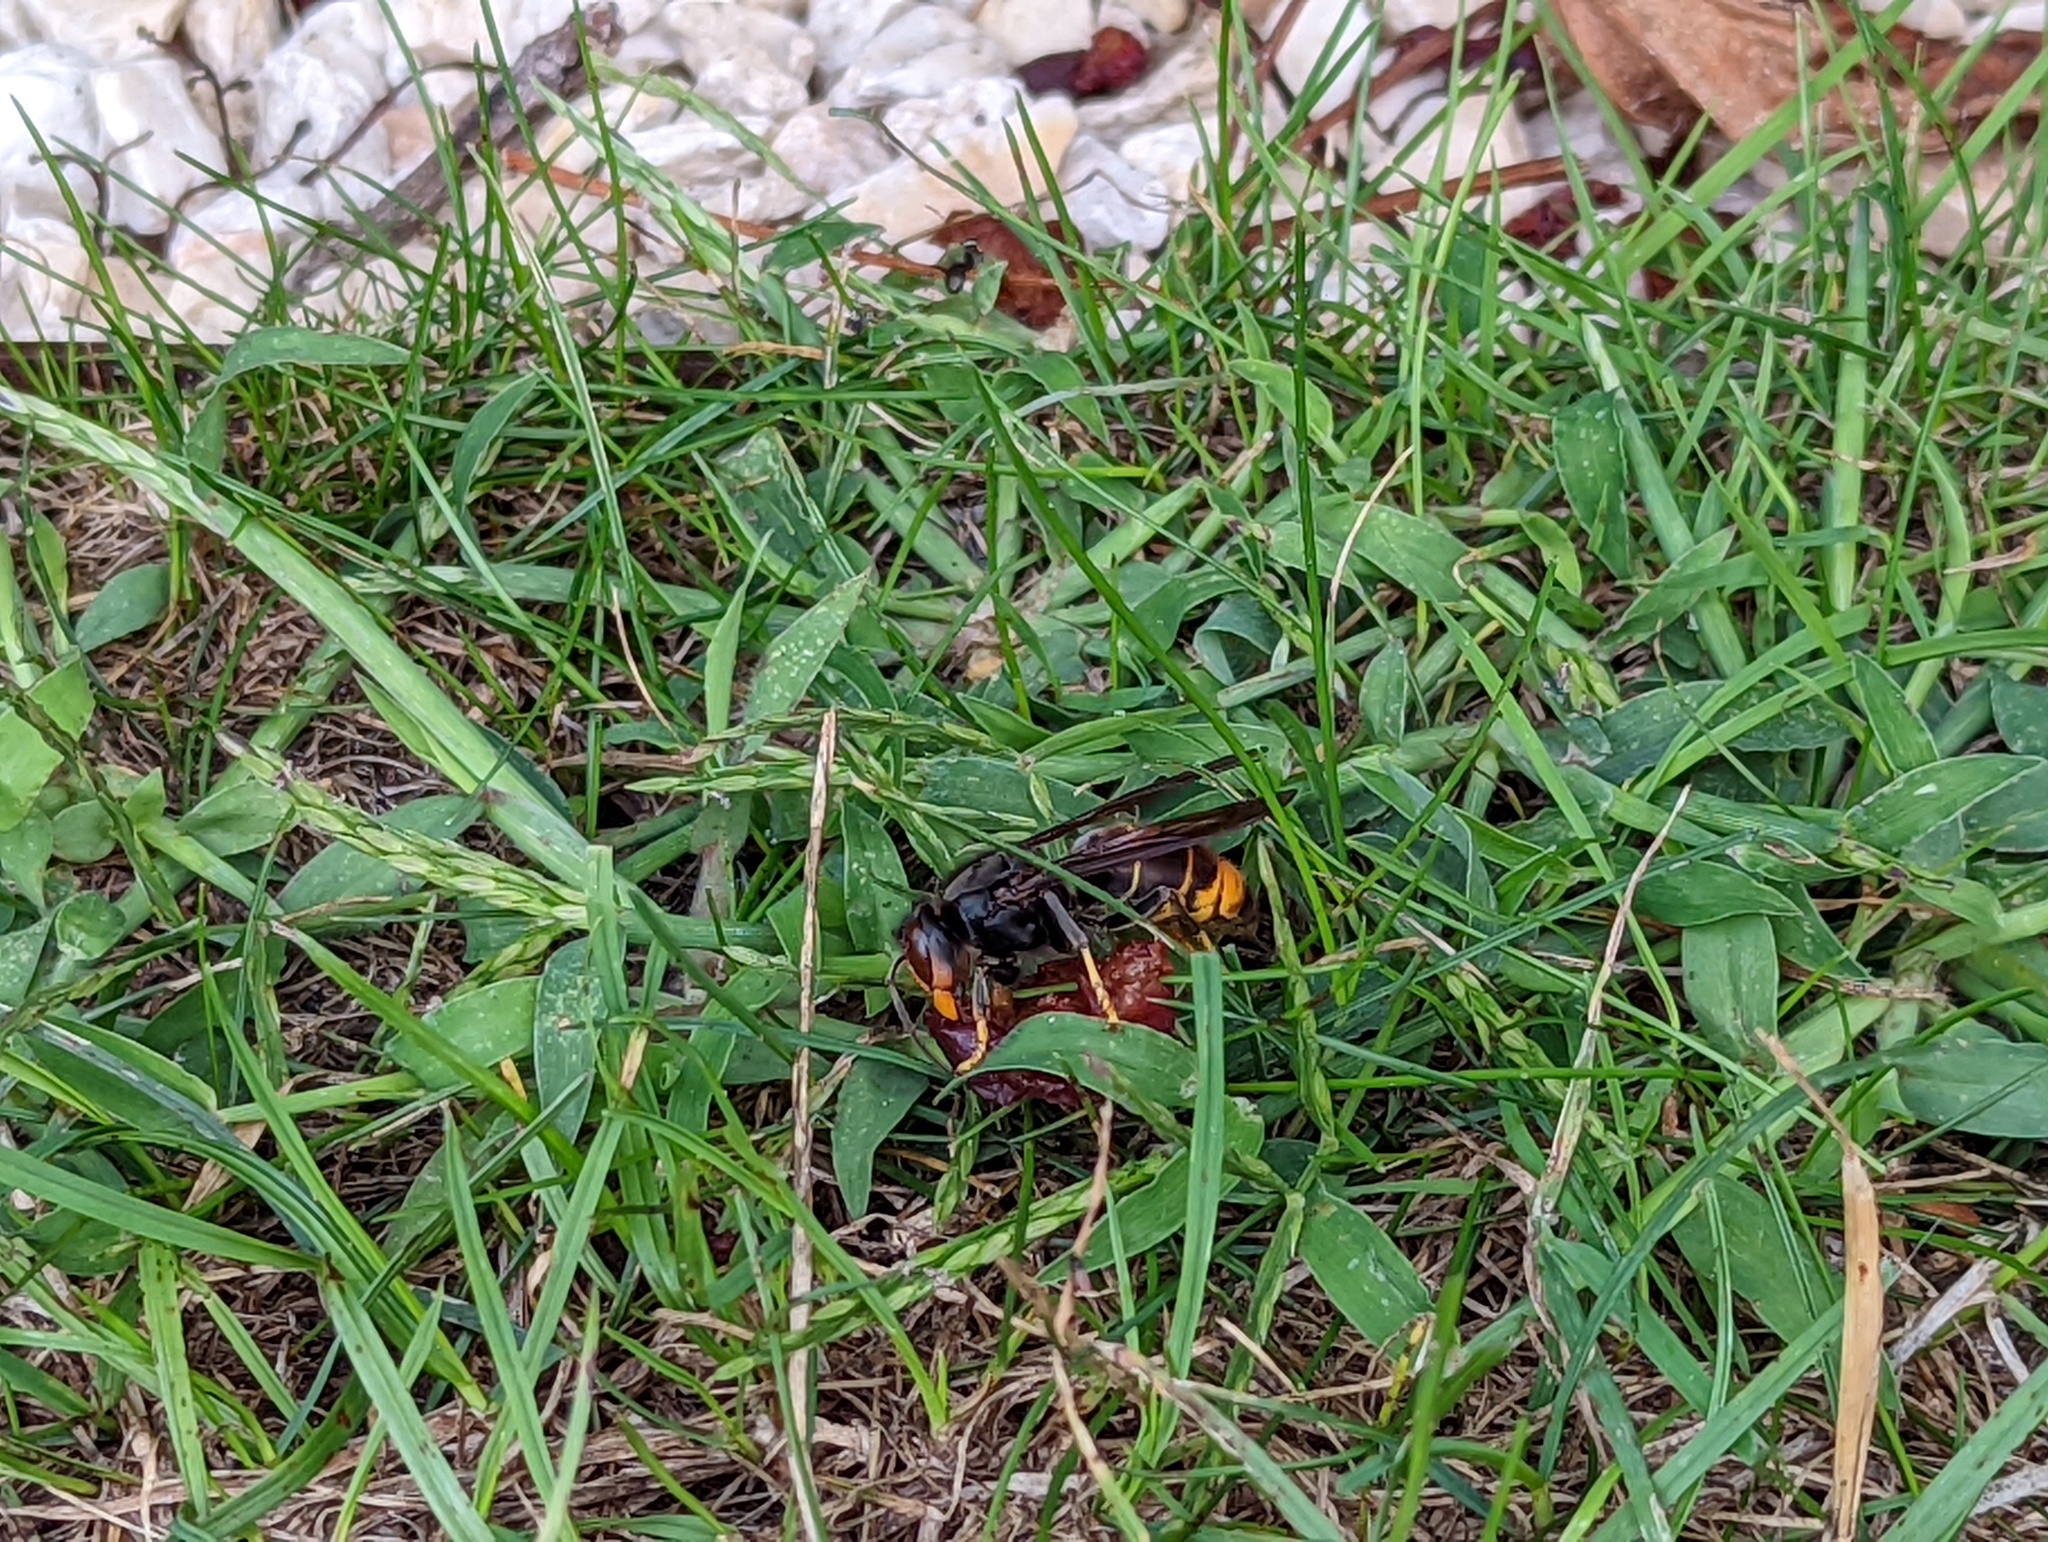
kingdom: Animalia
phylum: Arthropoda
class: Insecta
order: Hymenoptera
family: Vespidae
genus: Vespa
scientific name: Vespa velutina
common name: Asian hornet
